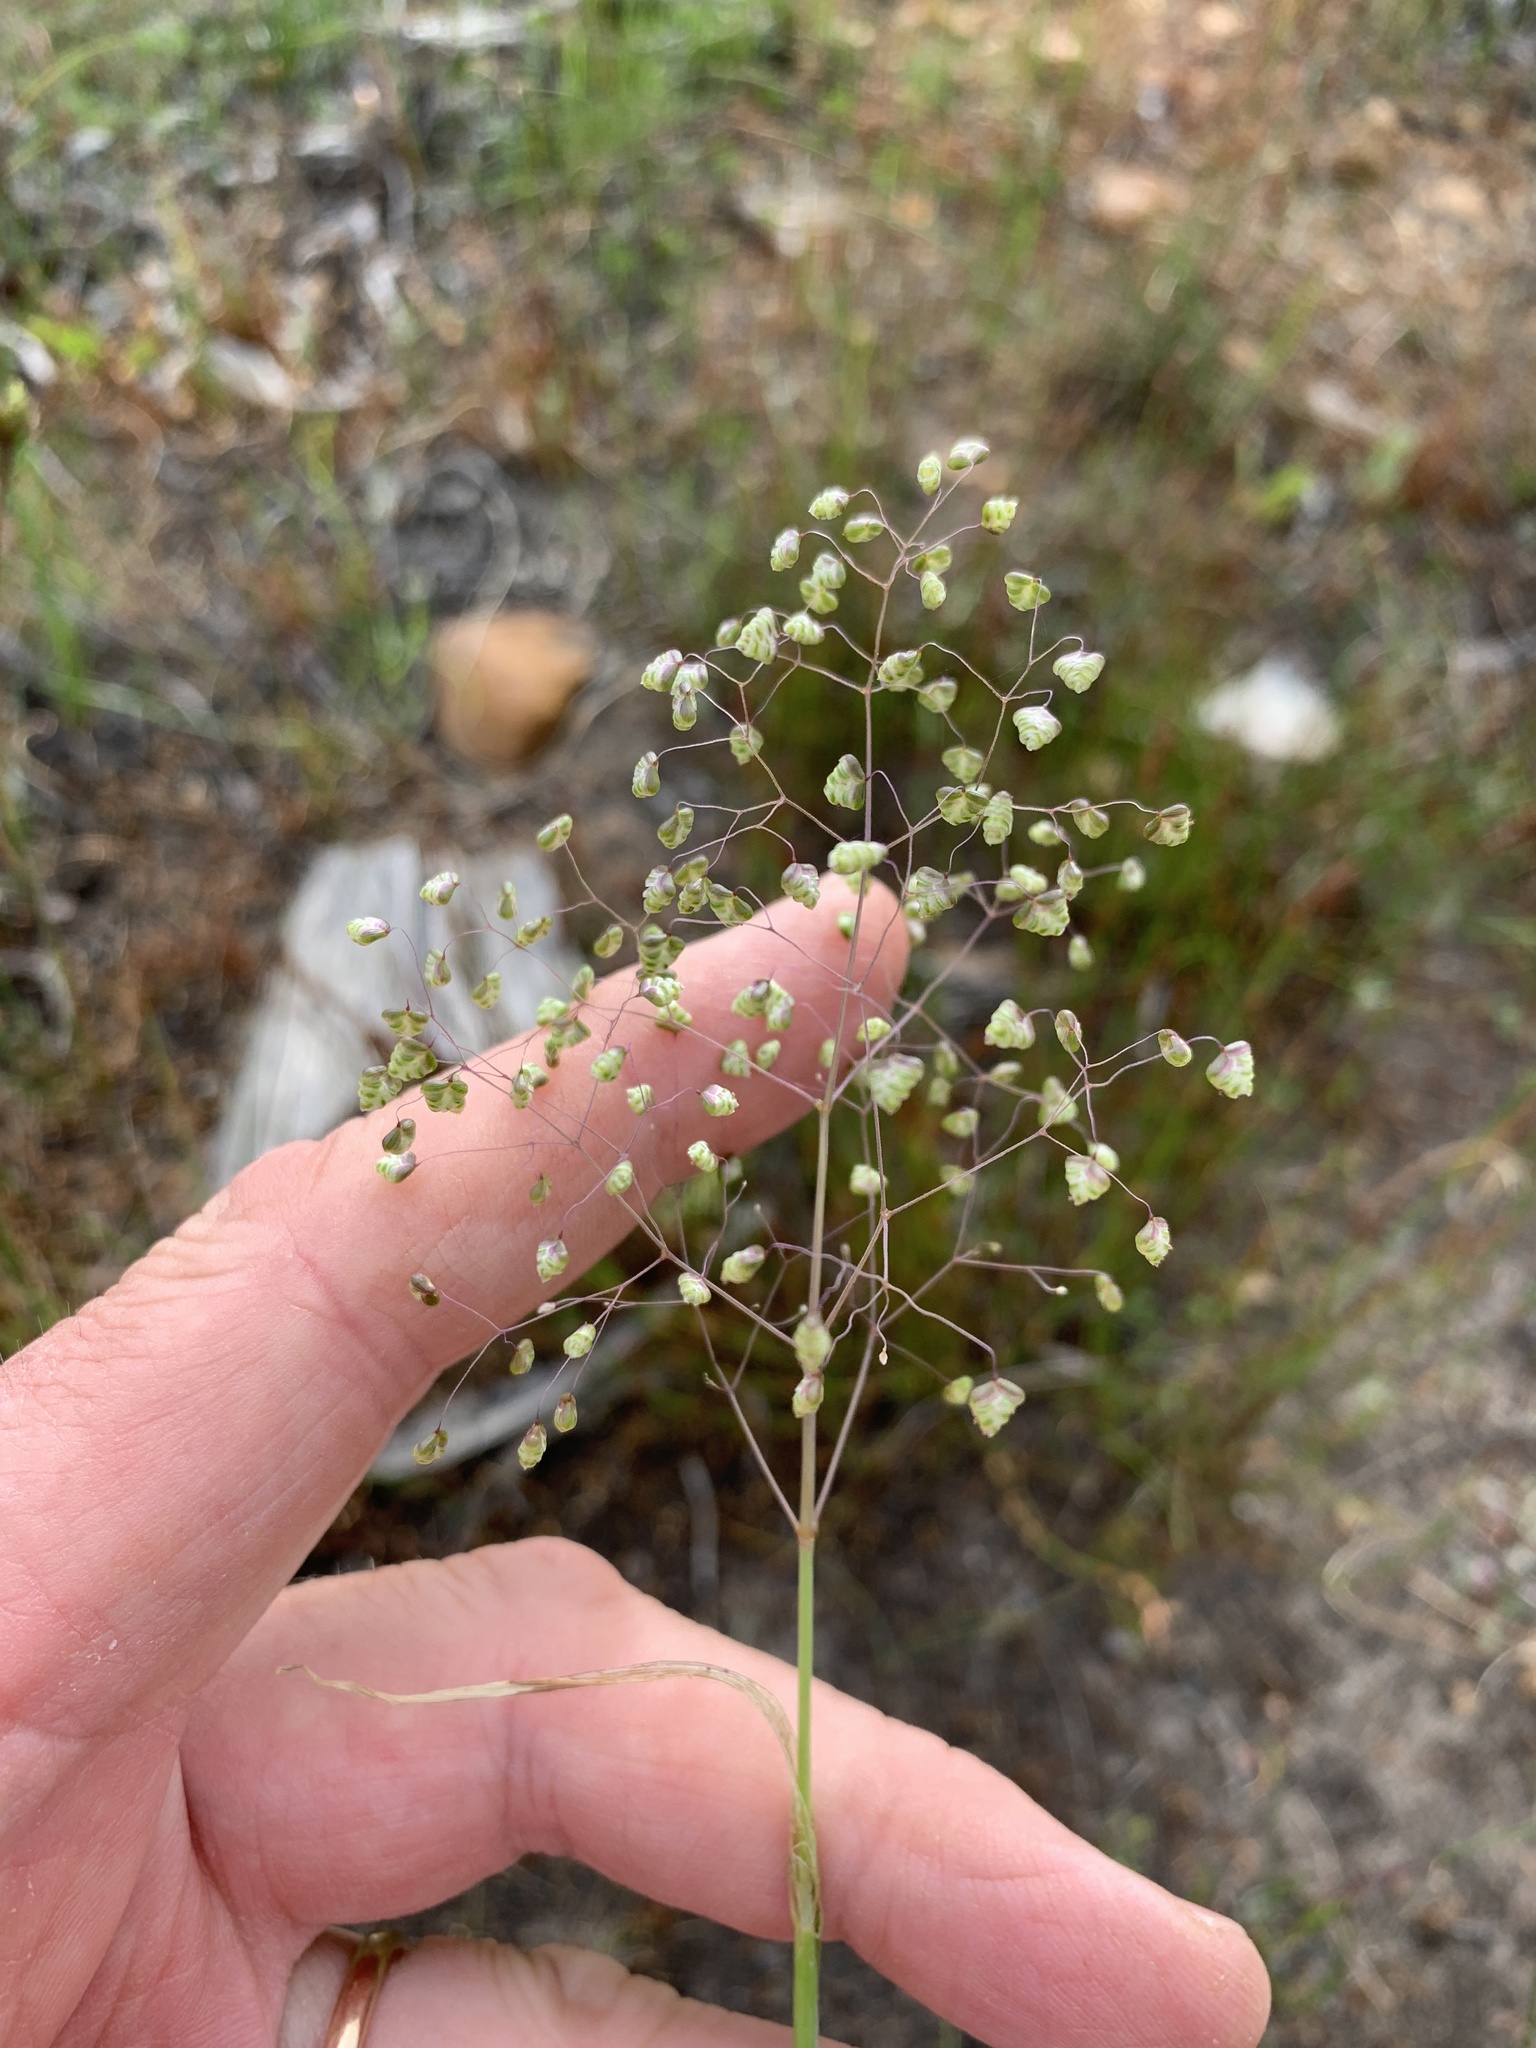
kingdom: Plantae
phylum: Tracheophyta
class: Liliopsida
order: Poales
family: Poaceae
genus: Briza
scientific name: Briza minor
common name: Lesser quaking-grass
